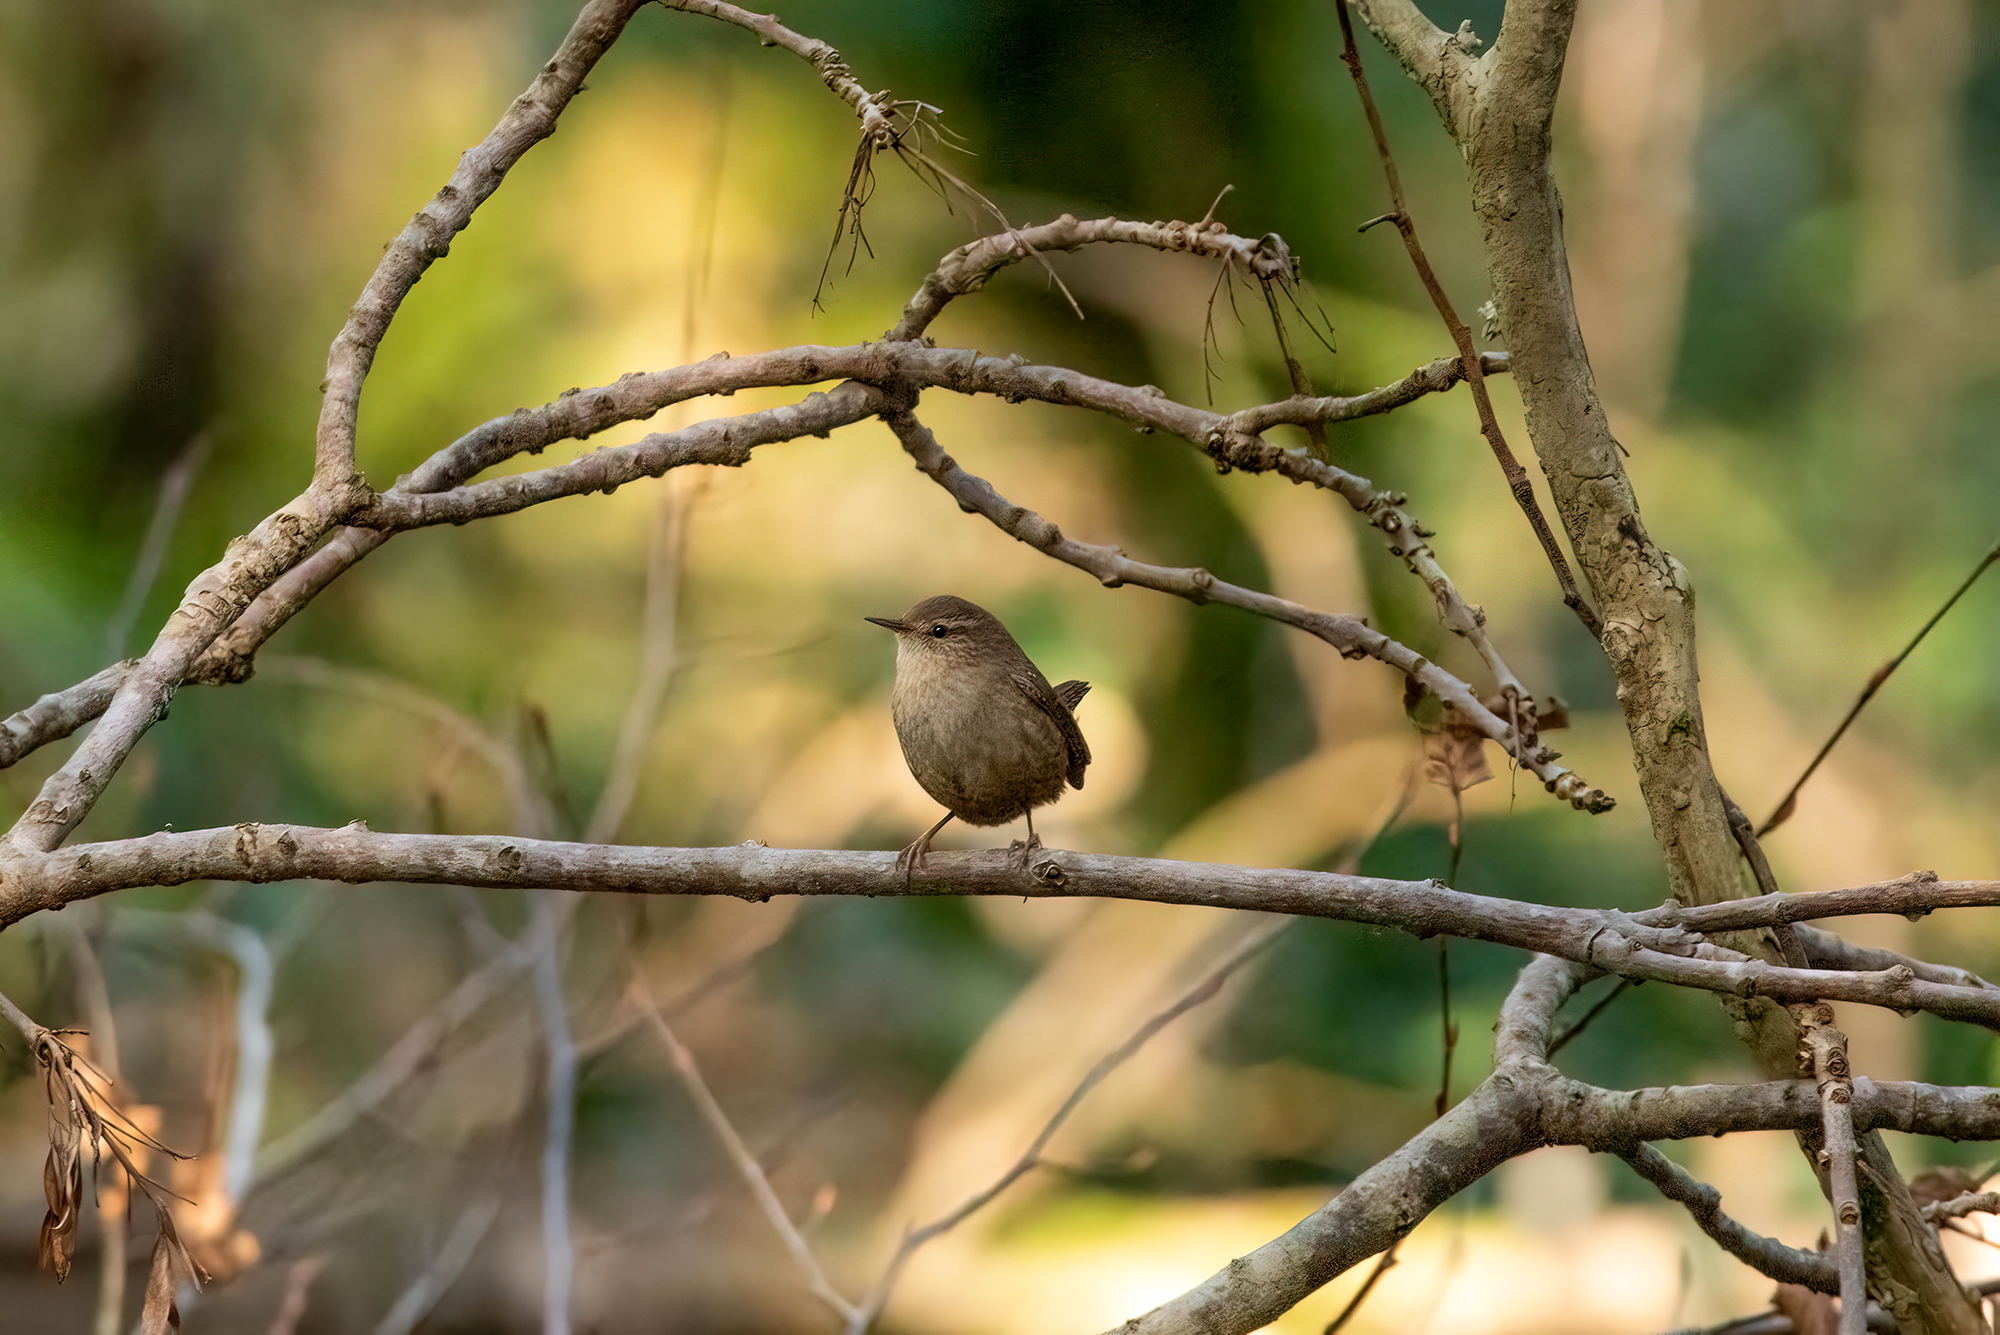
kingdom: Animalia
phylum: Chordata
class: Aves
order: Passeriformes
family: Troglodytidae
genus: Troglodytes
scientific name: Troglodytes troglodytes
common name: Eurasian wren
